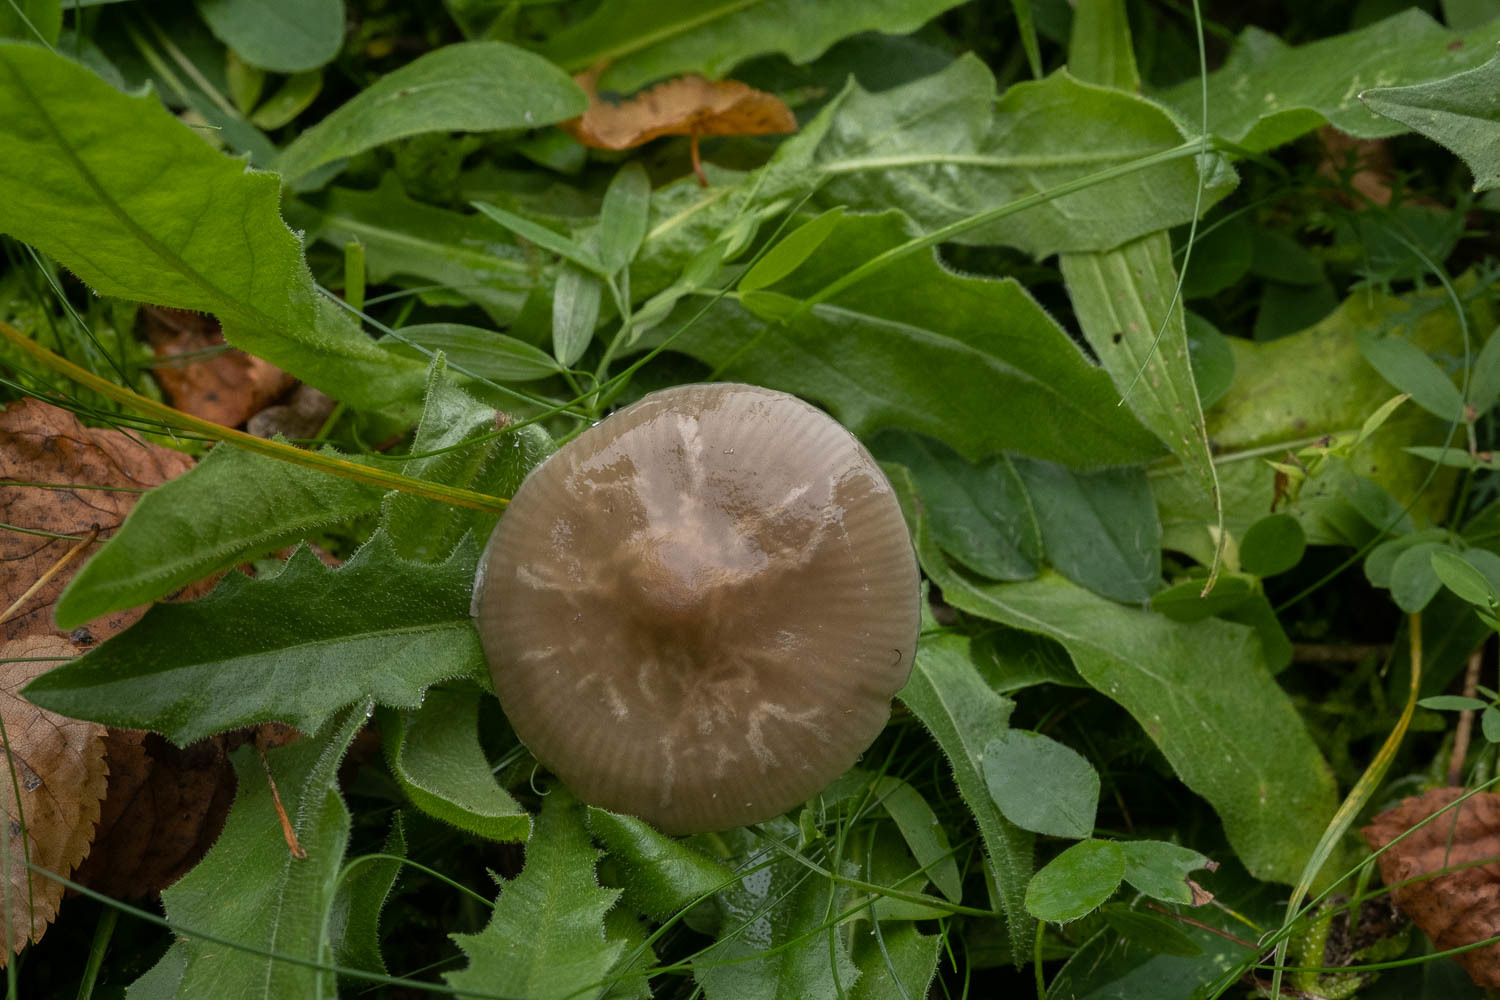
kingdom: Fungi
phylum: Basidiomycota
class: Agaricomycetes
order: Agaricales
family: Hygrophoraceae
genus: Gliophorus
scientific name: Gliophorus irrigatus
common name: Slimy waxcap
